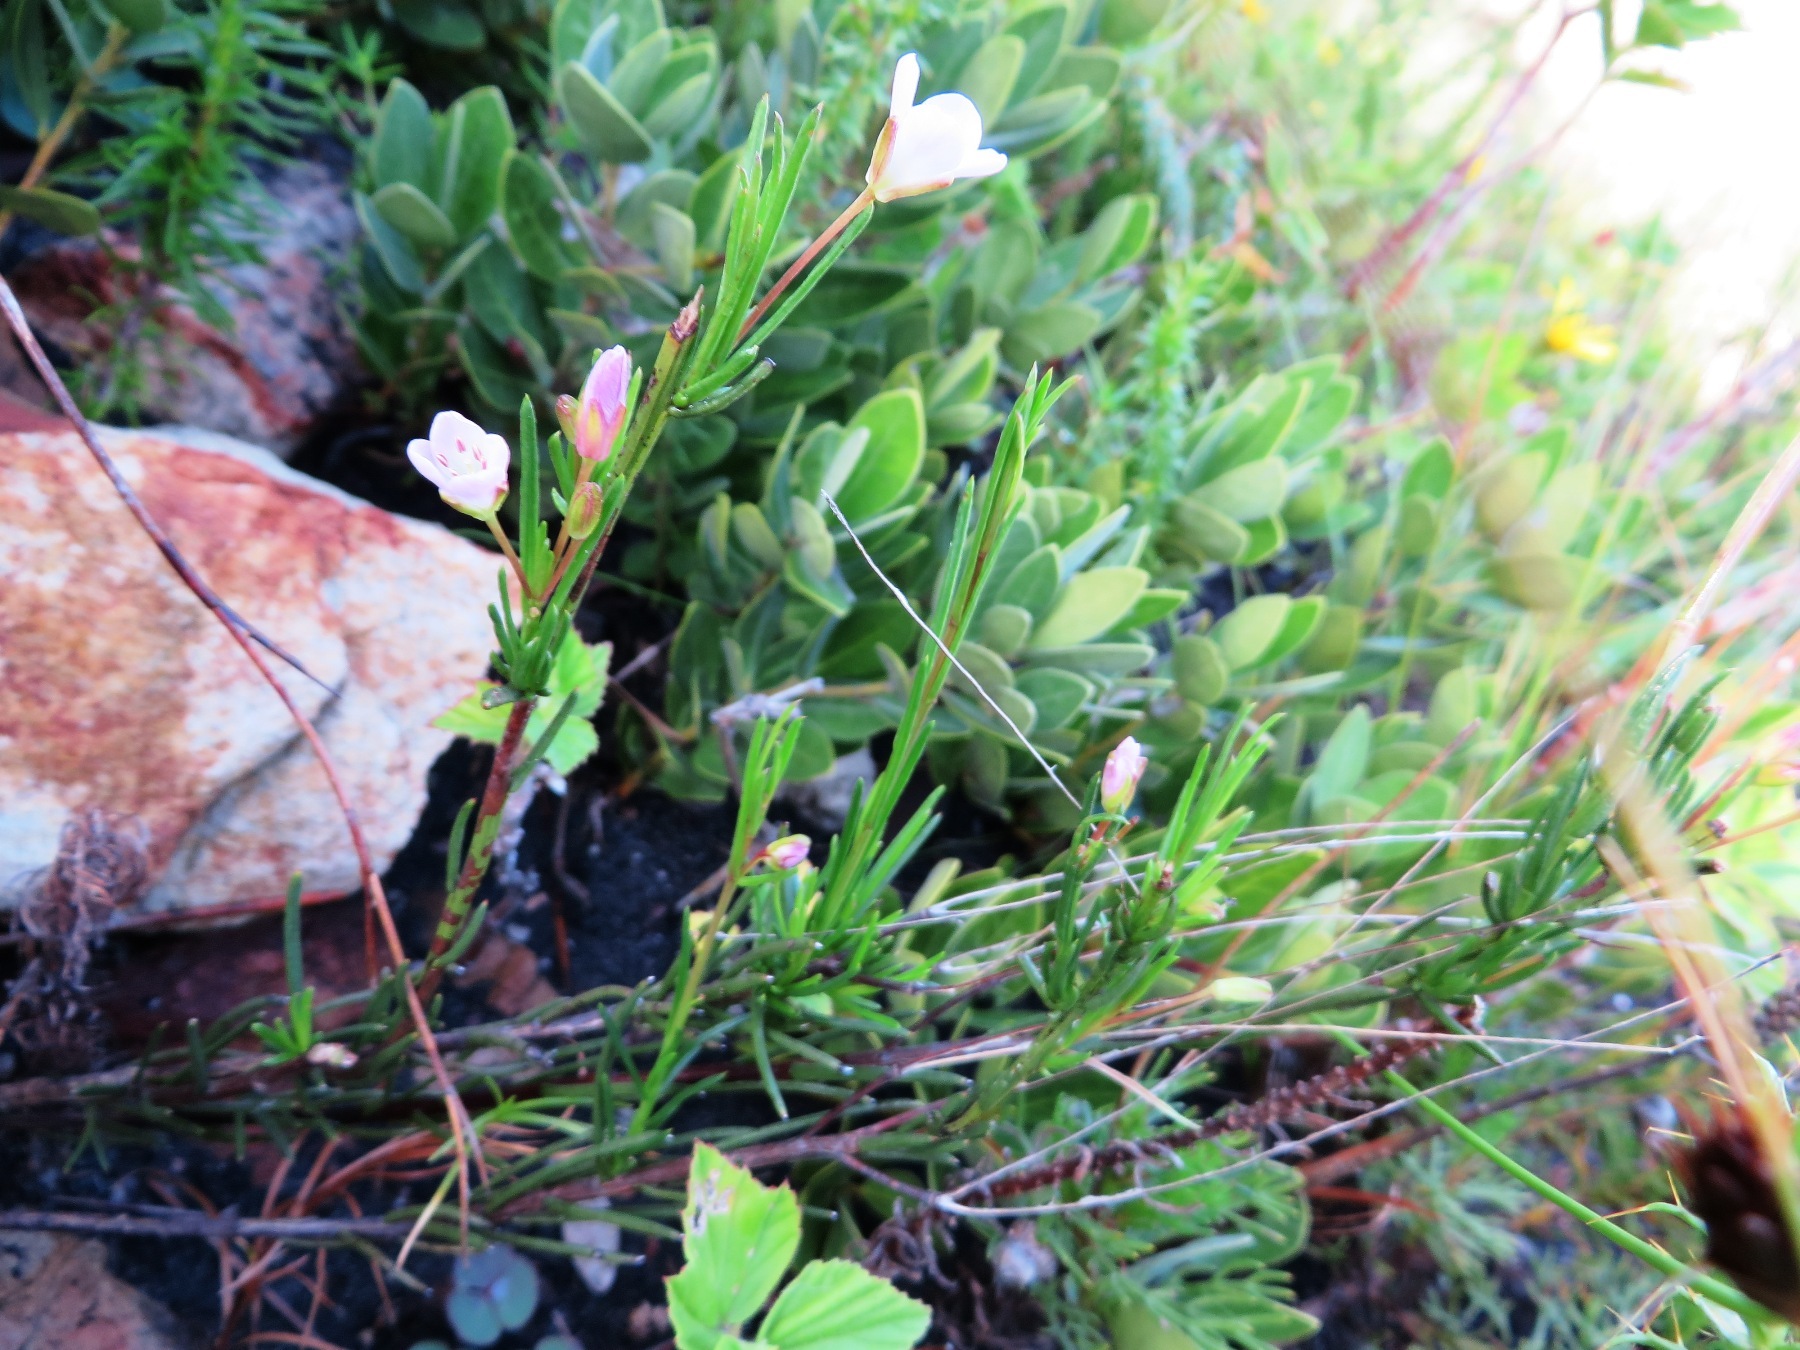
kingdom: Plantae
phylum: Tracheophyta
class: Magnoliopsida
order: Brassicales
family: Brassicaceae
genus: Heliophila
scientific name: Heliophila scoparia
